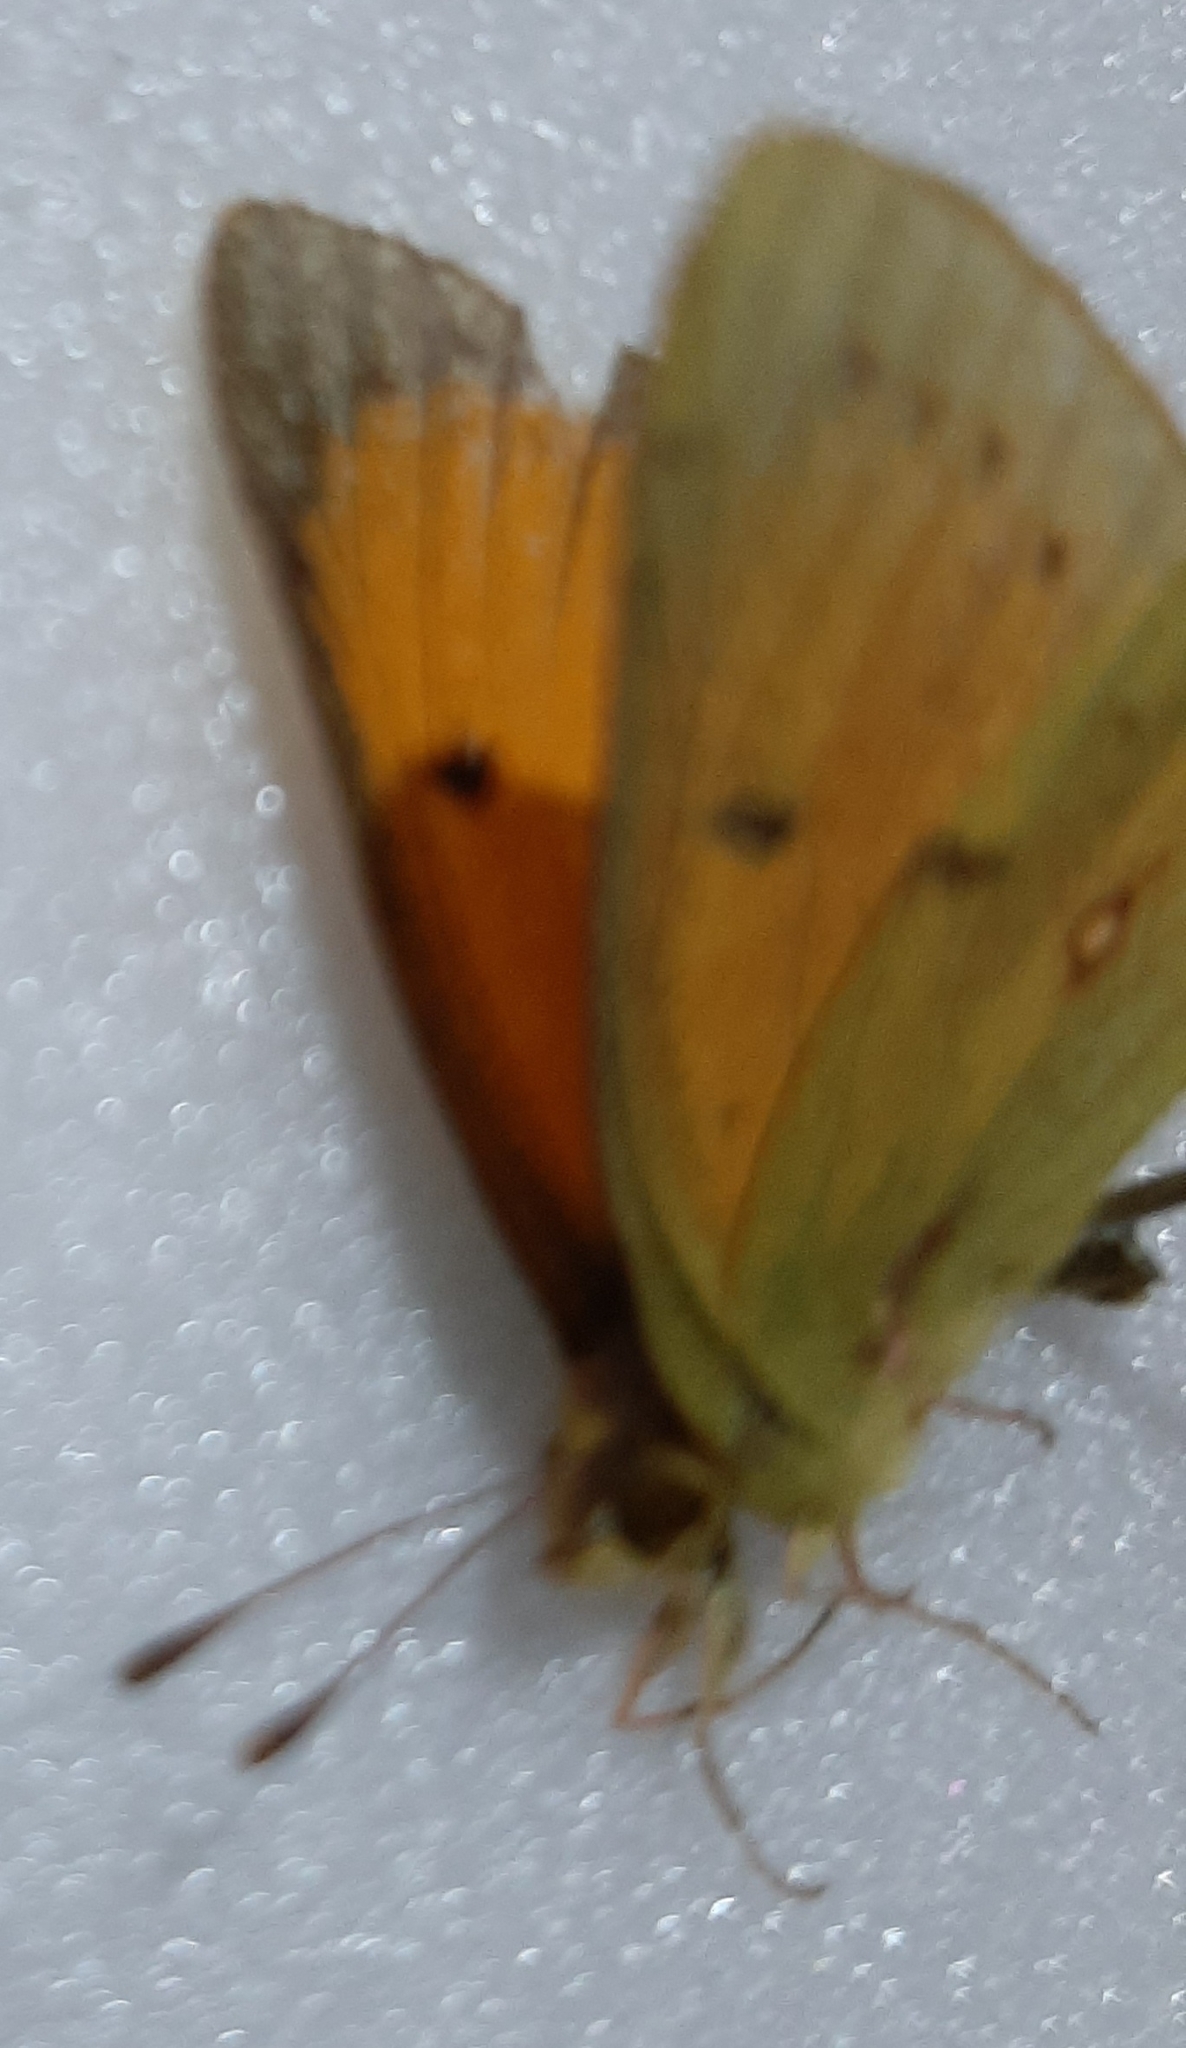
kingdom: Animalia
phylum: Arthropoda
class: Insecta
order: Lepidoptera
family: Pieridae
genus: Colias
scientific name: Colias lesbia
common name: Lesbia clouded yellow
